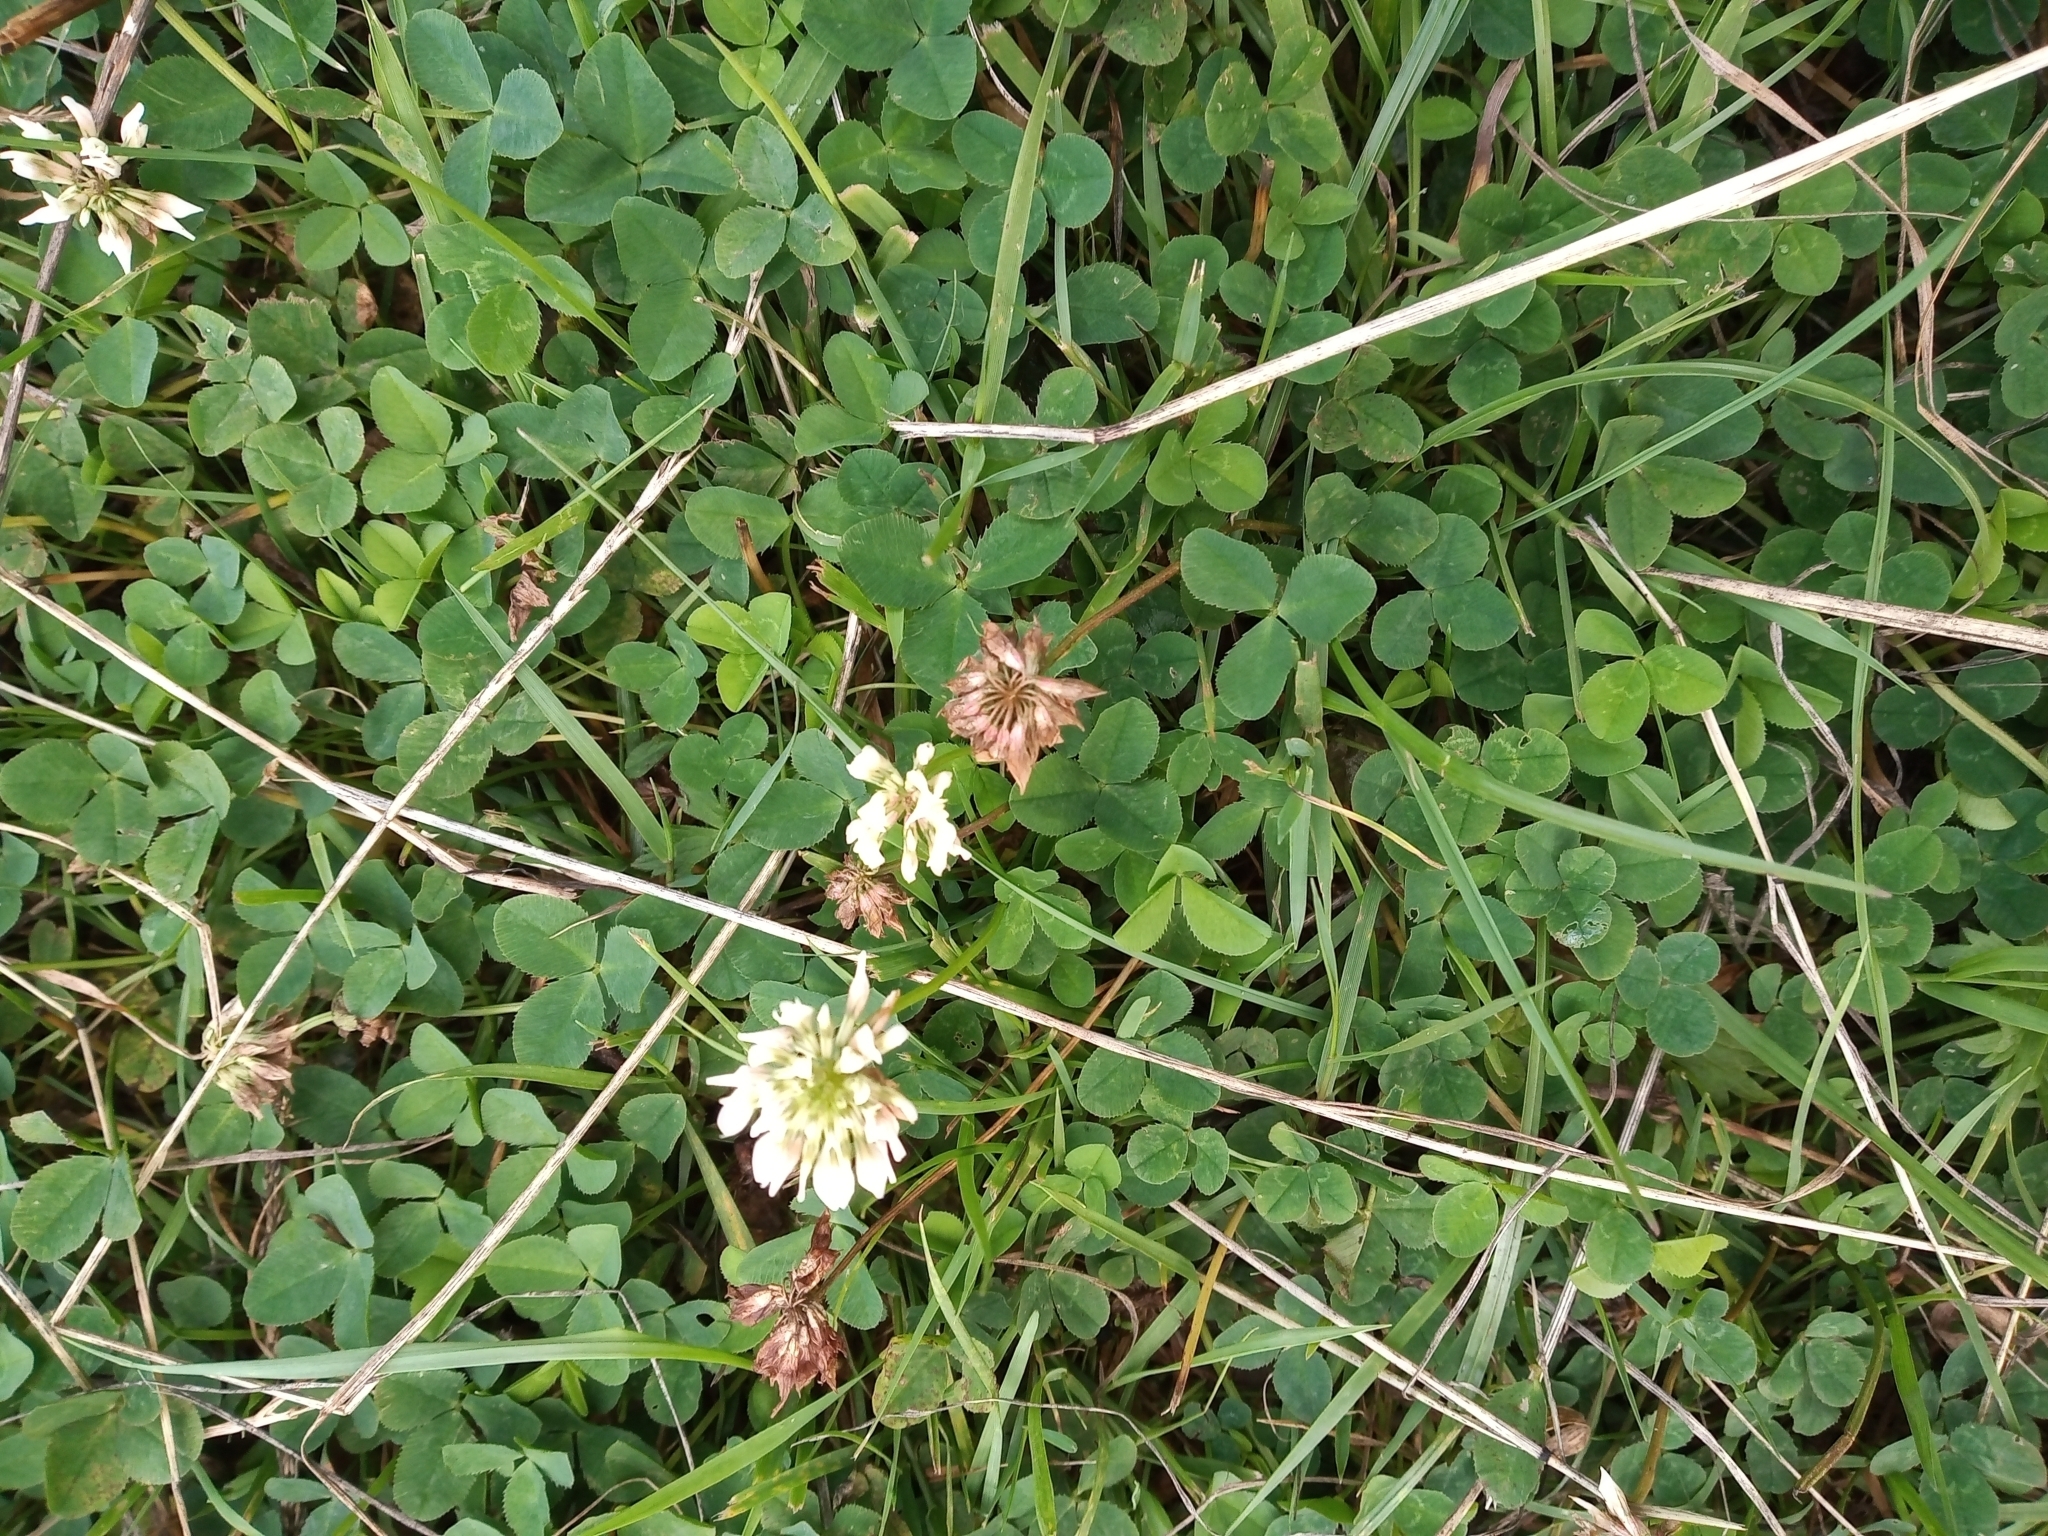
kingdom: Plantae
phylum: Tracheophyta
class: Magnoliopsida
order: Fabales
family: Fabaceae
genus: Trifolium
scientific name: Trifolium repens
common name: White clover
